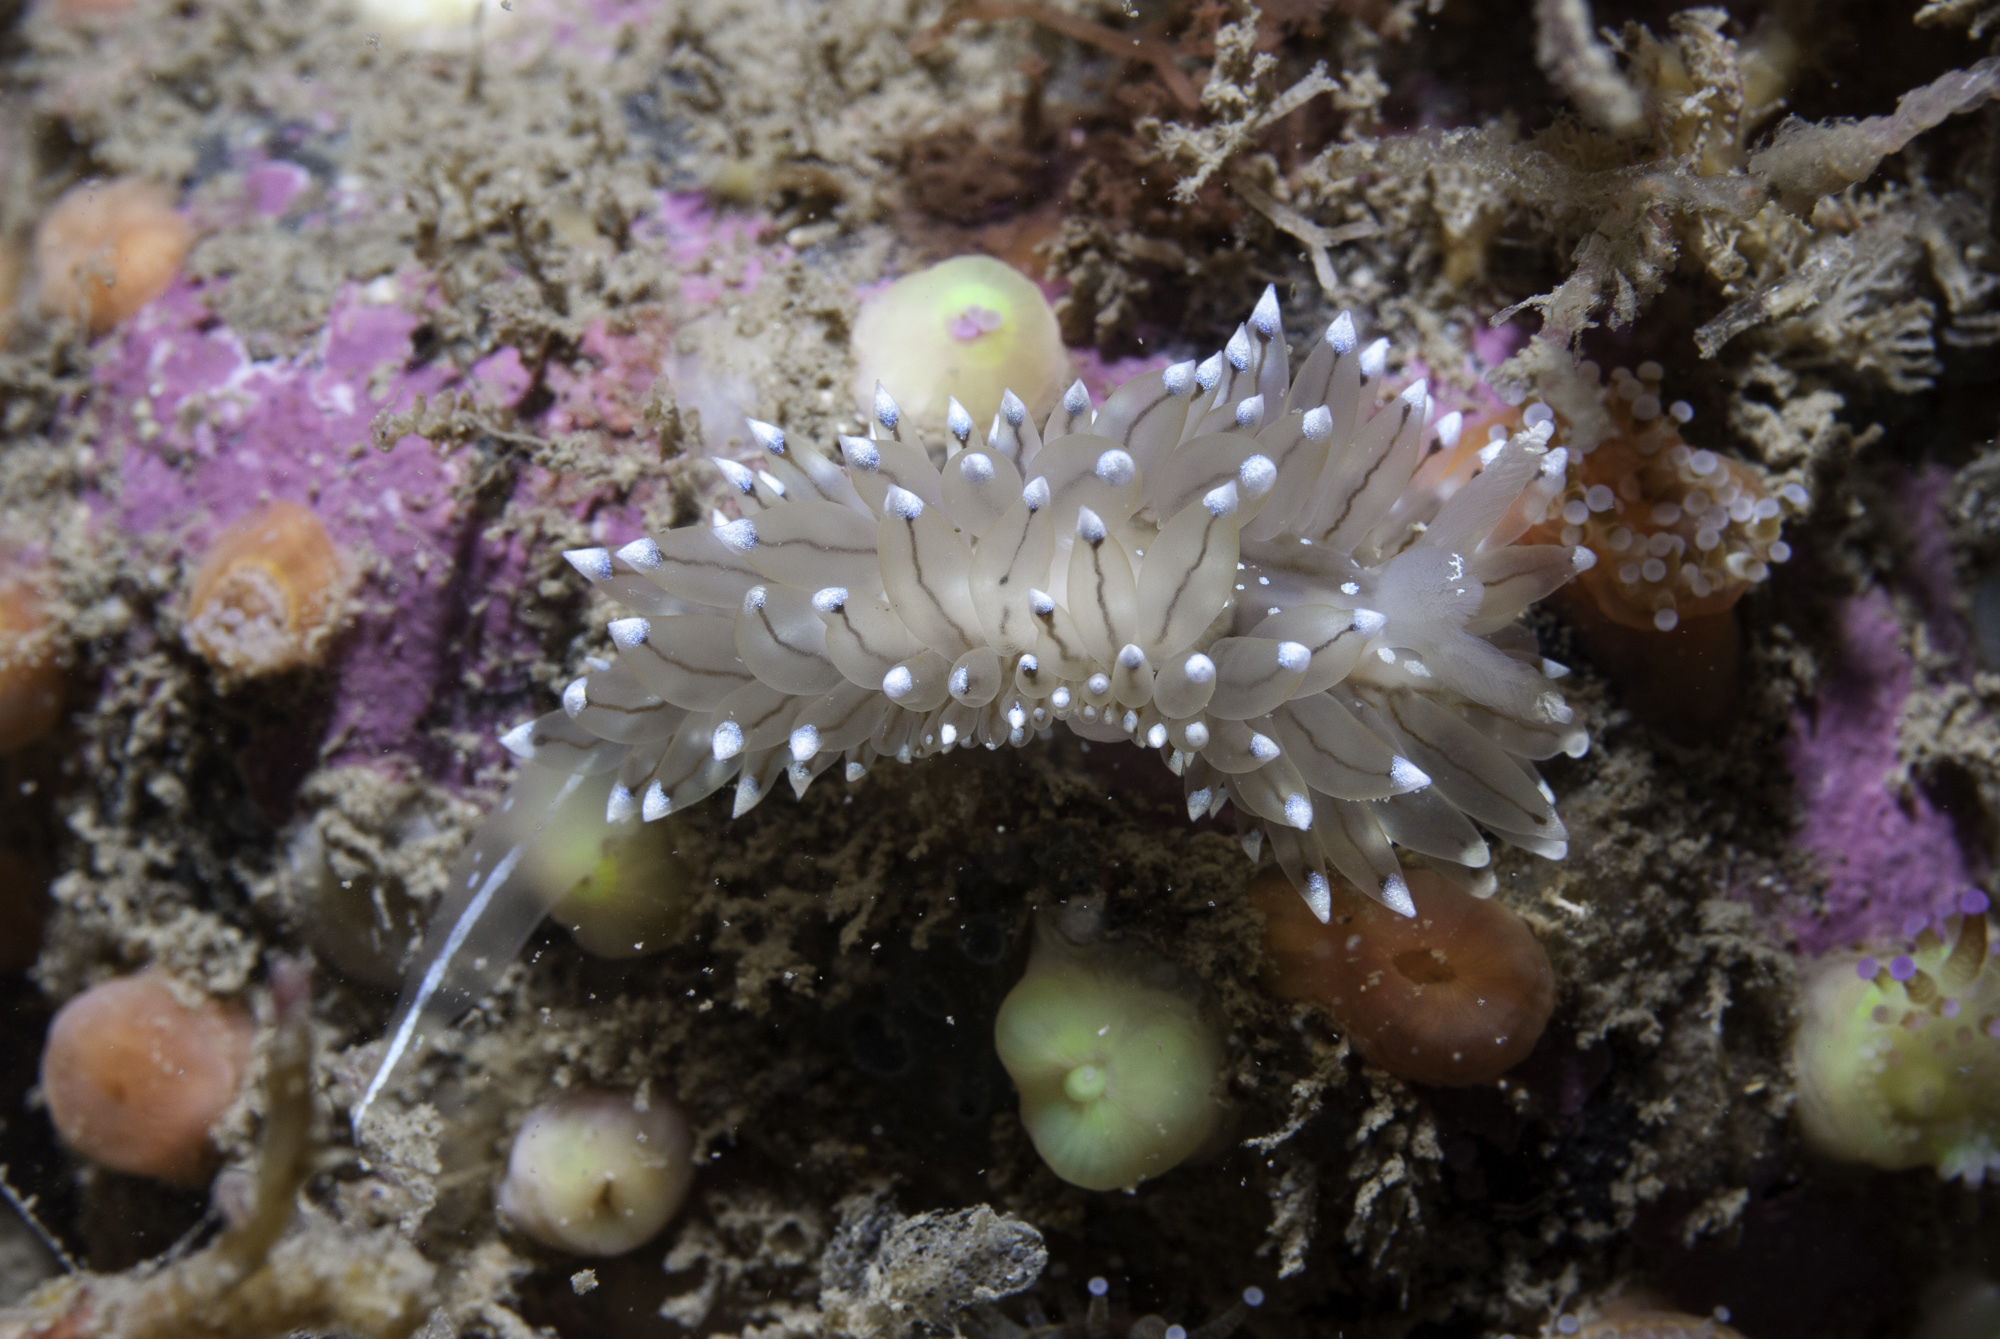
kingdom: Animalia
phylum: Mollusca
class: Gastropoda
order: Nudibranchia
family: Janolidae
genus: Antiopella
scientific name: Antiopella cristata
